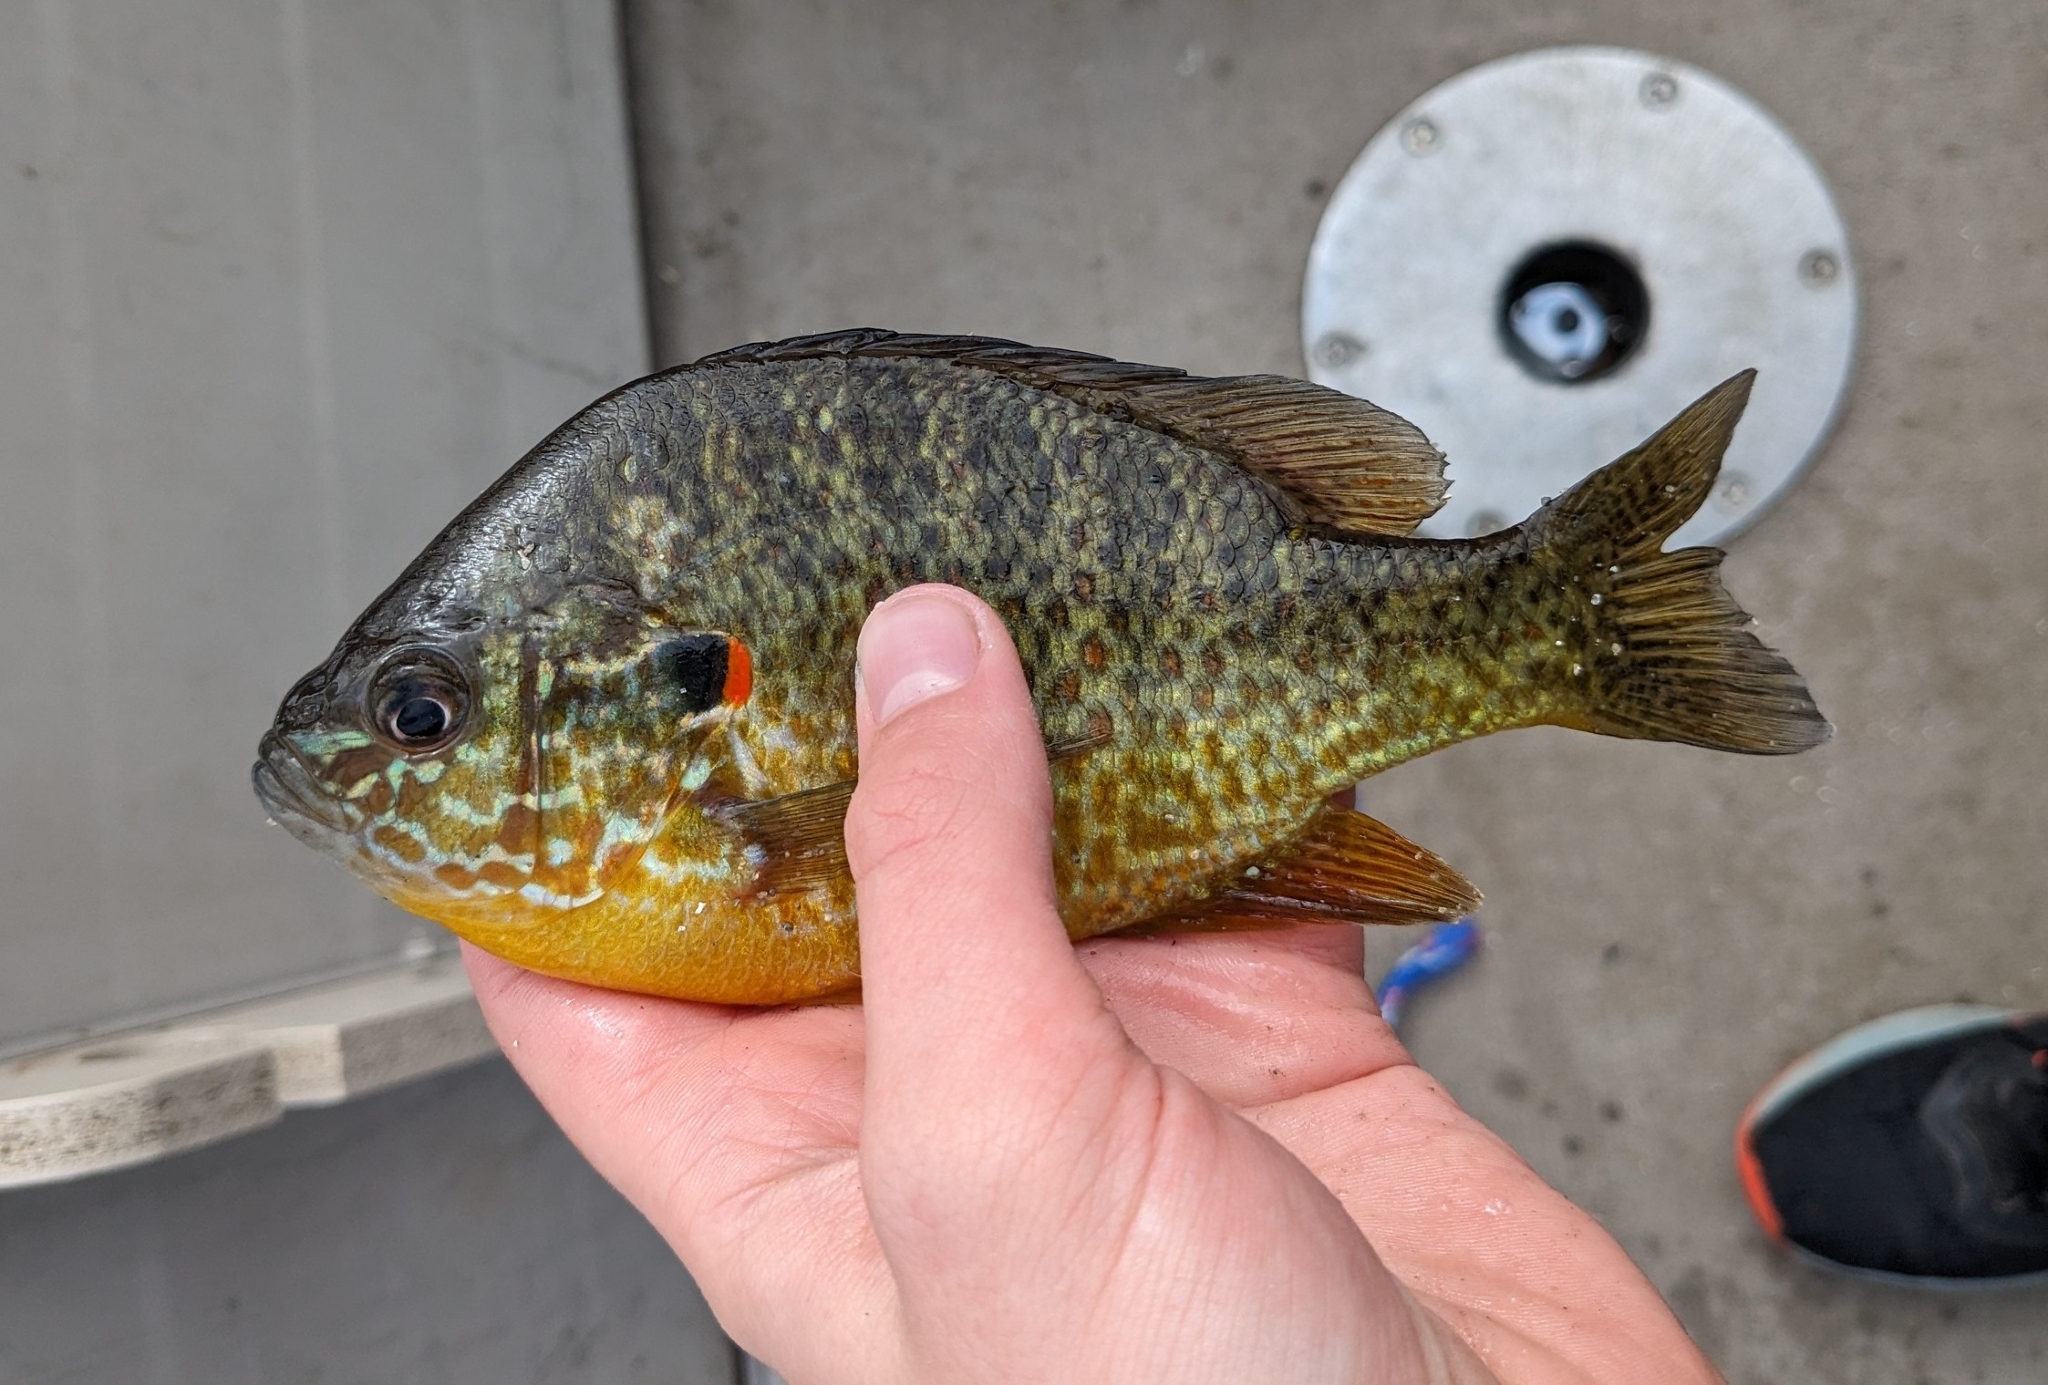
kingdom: Animalia
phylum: Chordata
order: Perciformes
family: Centrarchidae
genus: Lepomis
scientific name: Lepomis gibbosus
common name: Pumpkinseed
